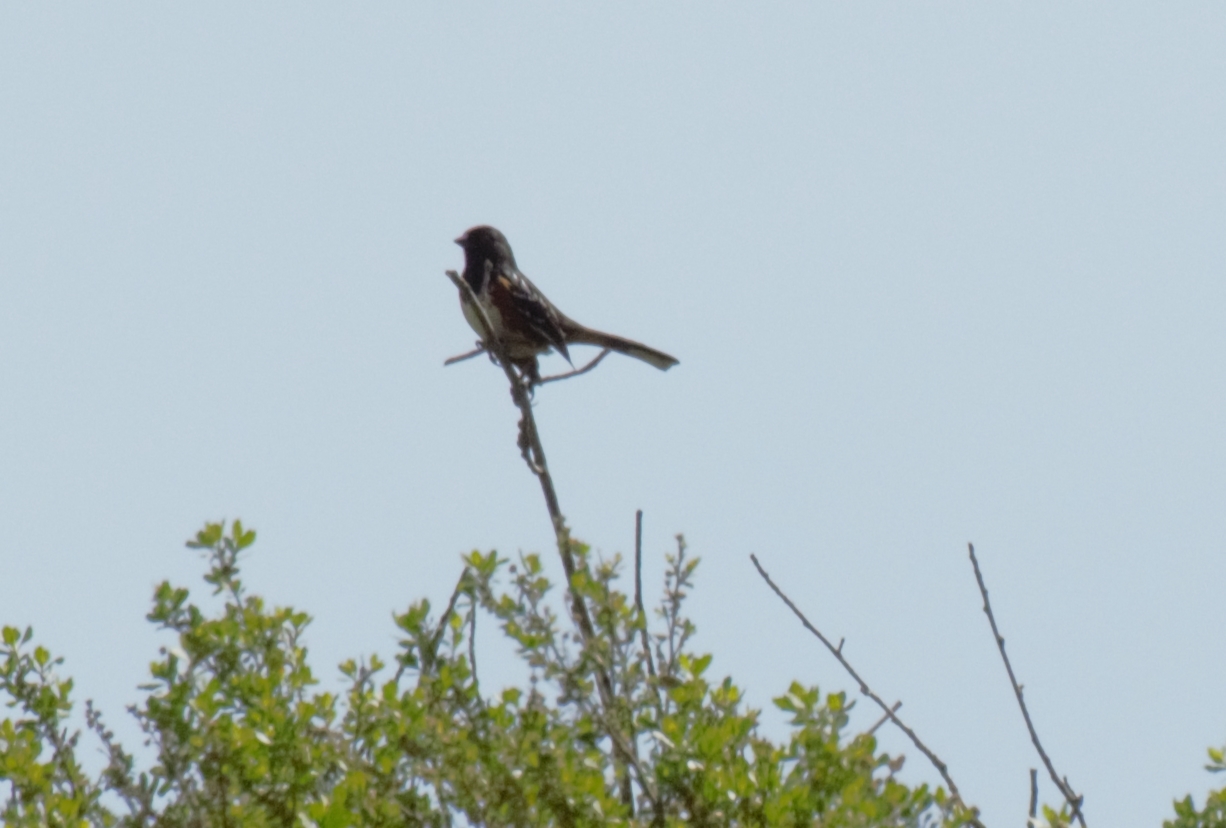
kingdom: Animalia
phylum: Chordata
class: Aves
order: Passeriformes
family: Passerellidae
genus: Pipilo
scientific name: Pipilo maculatus
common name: Spotted towhee
